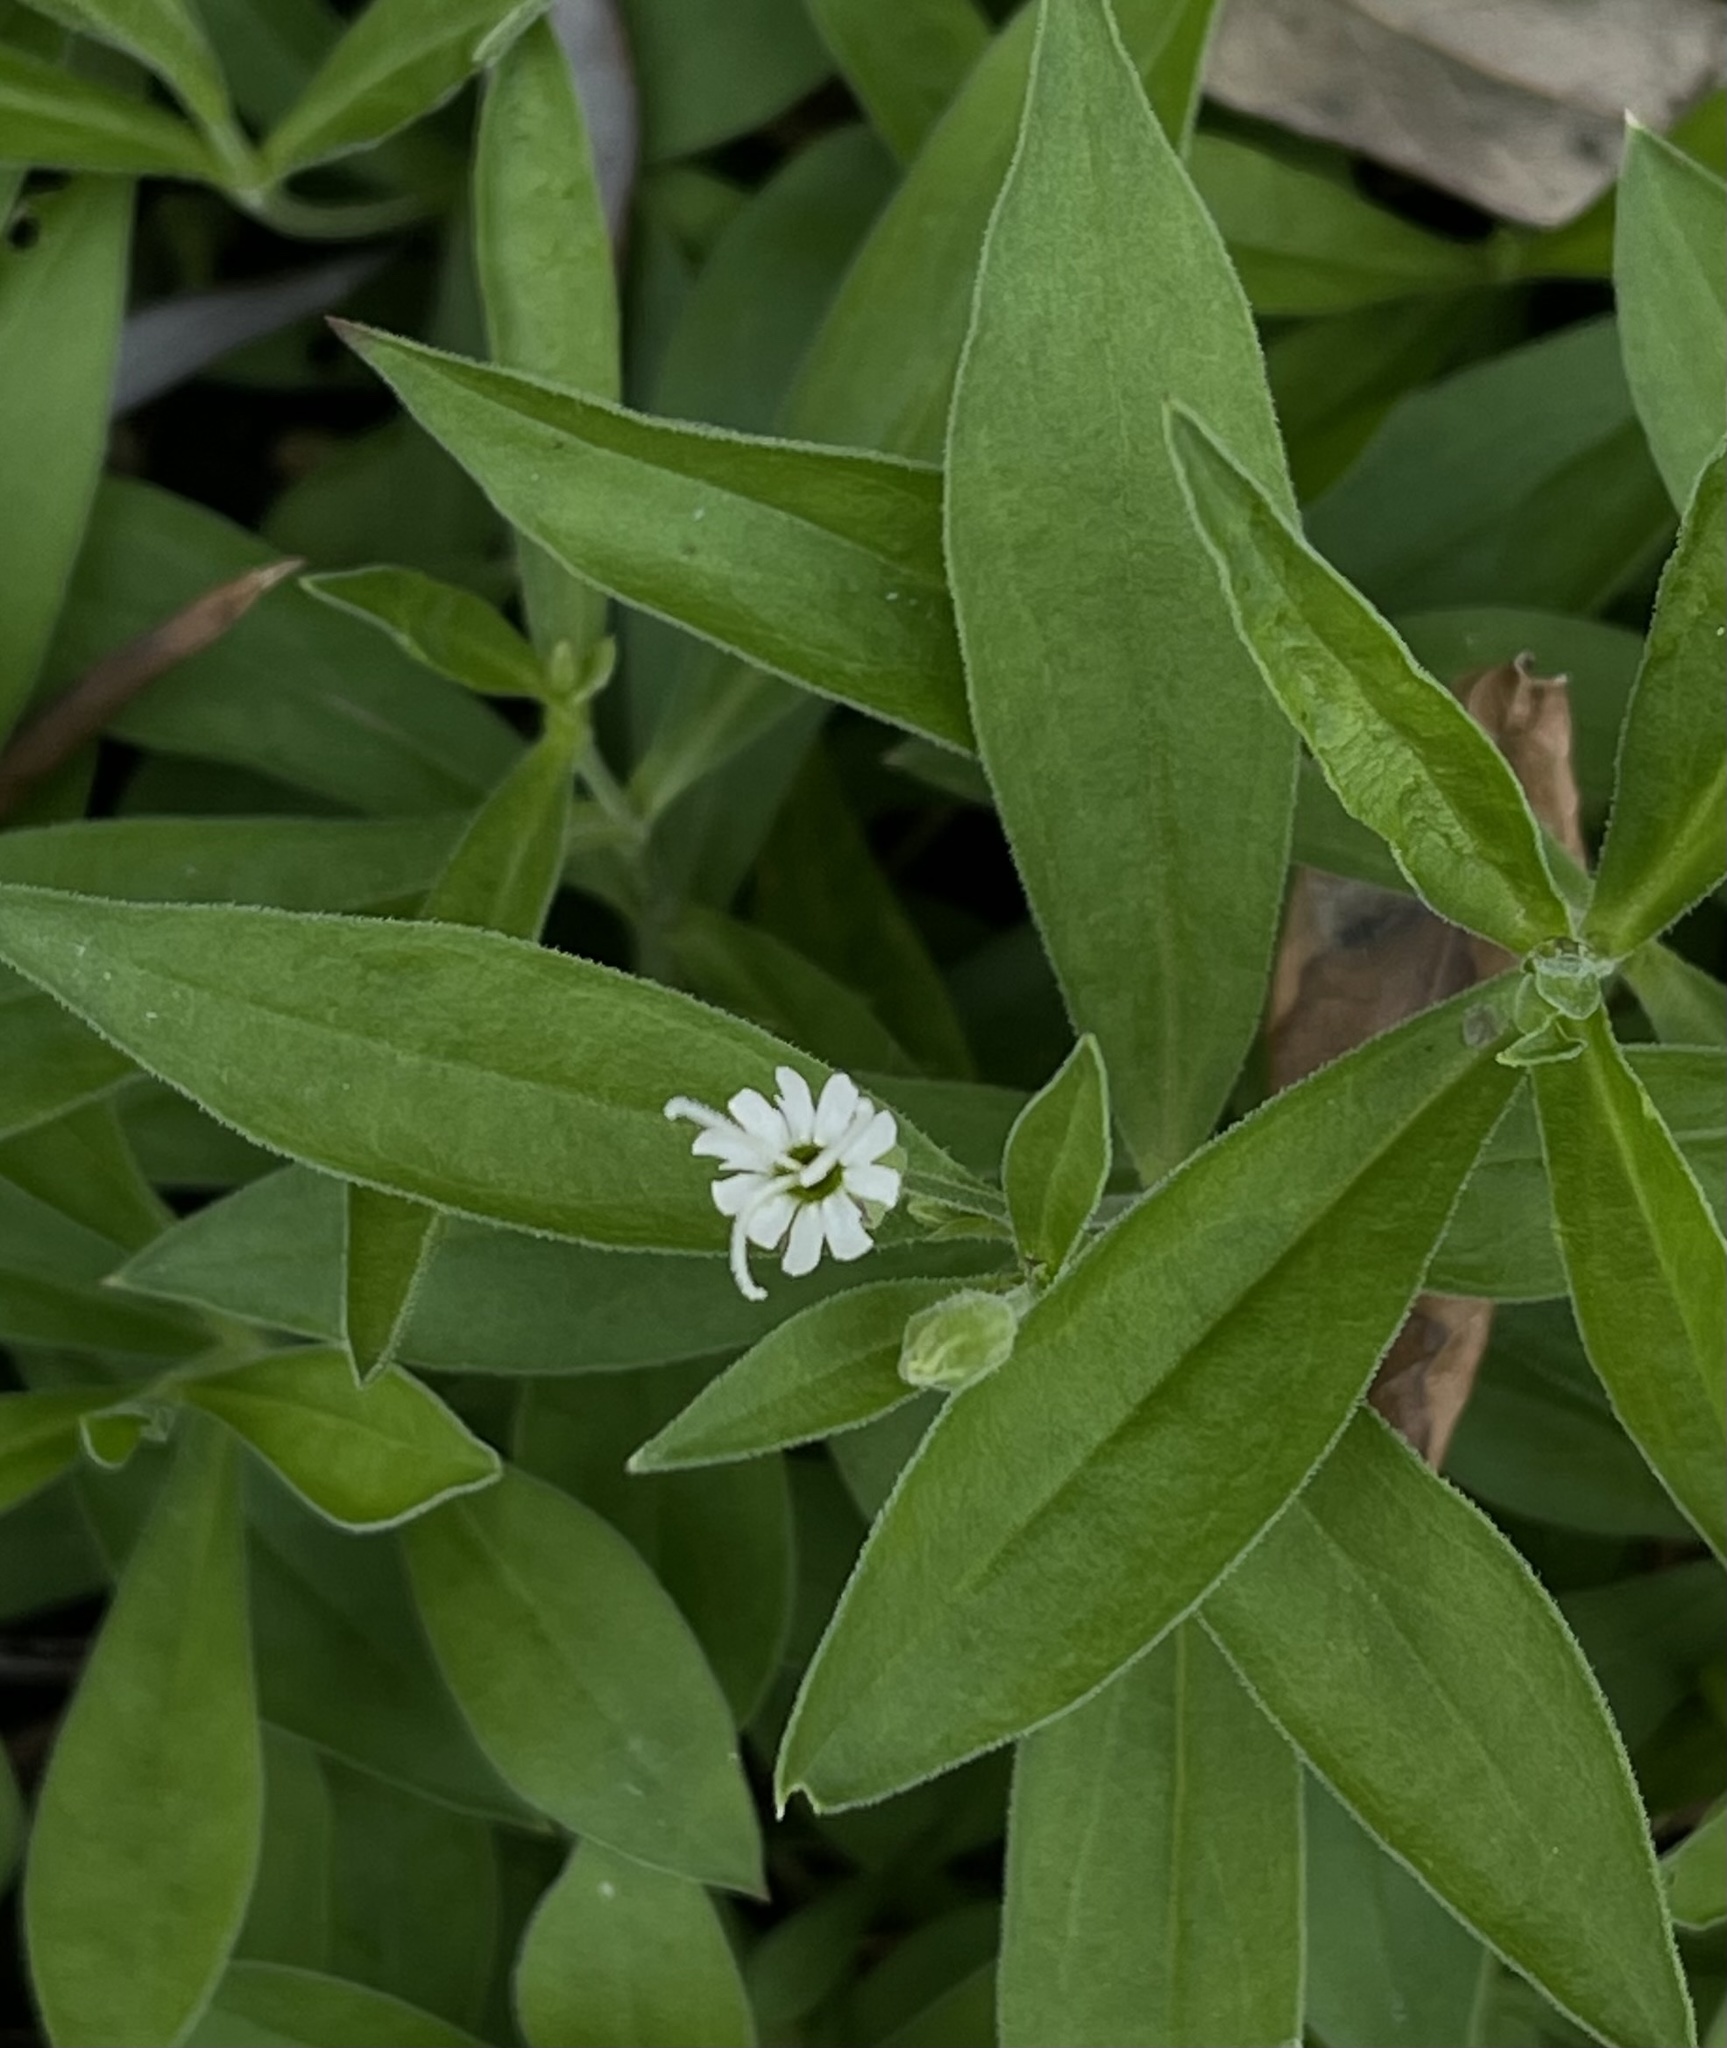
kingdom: Plantae
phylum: Tracheophyta
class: Magnoliopsida
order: Caryophyllales
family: Caryophyllaceae
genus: Silene
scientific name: Silene menziesii
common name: Menzies's catchfly
